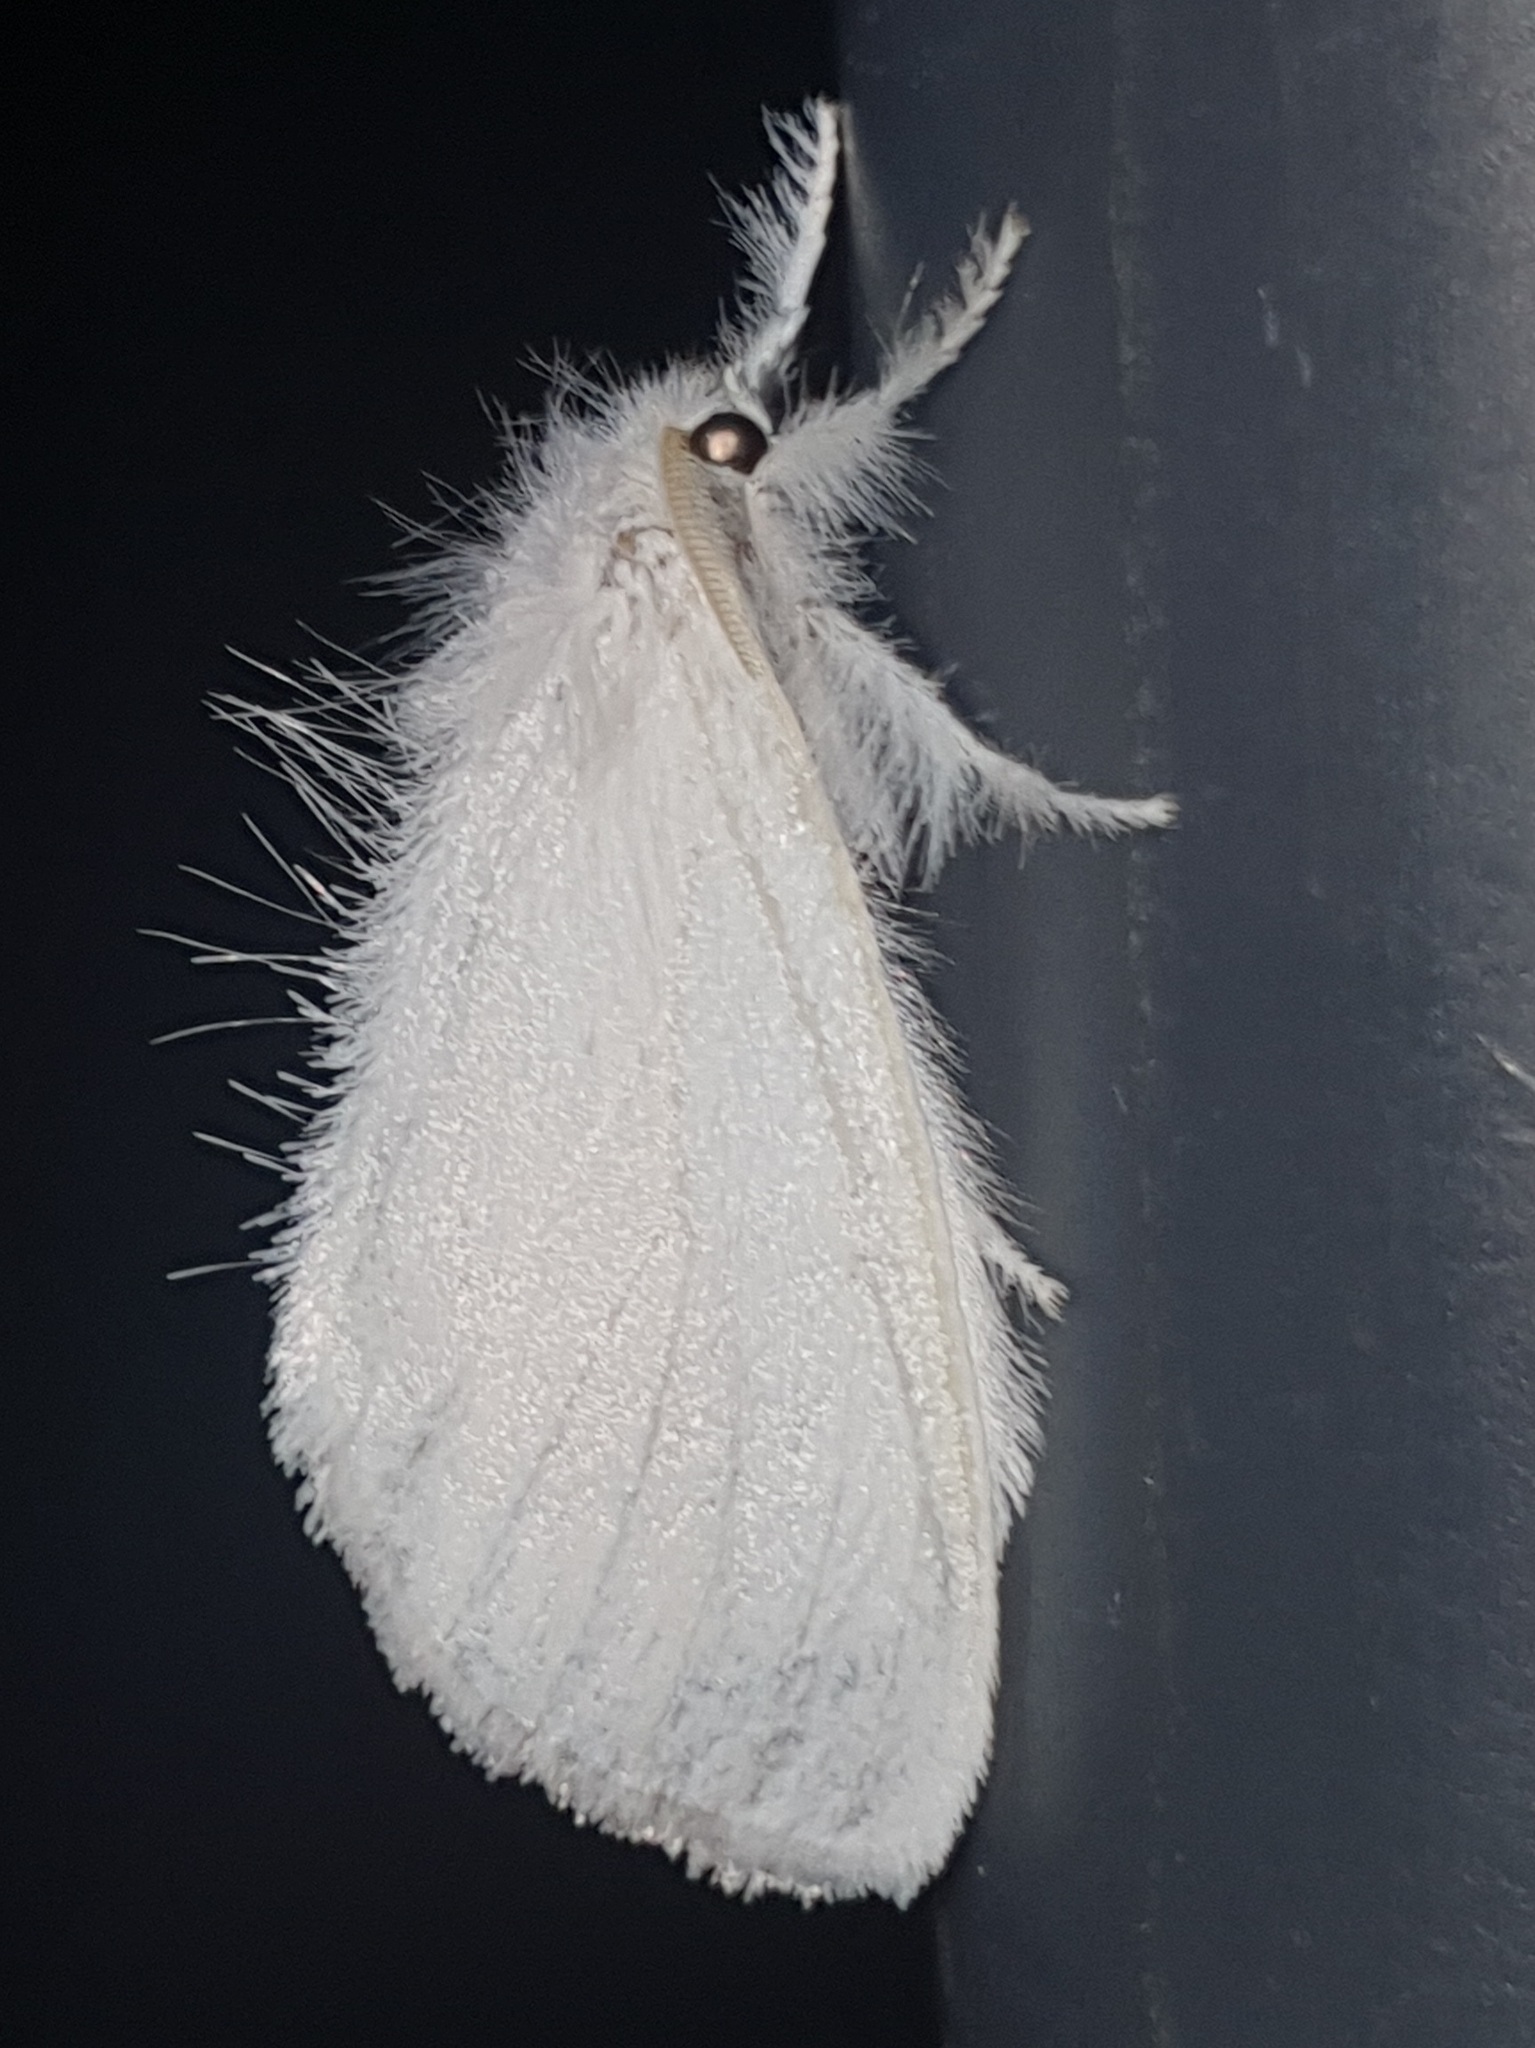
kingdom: Animalia
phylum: Arthropoda
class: Insecta
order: Lepidoptera
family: Erebidae
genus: Sphrageidus
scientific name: Sphrageidus similis
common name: Yellow-tail
